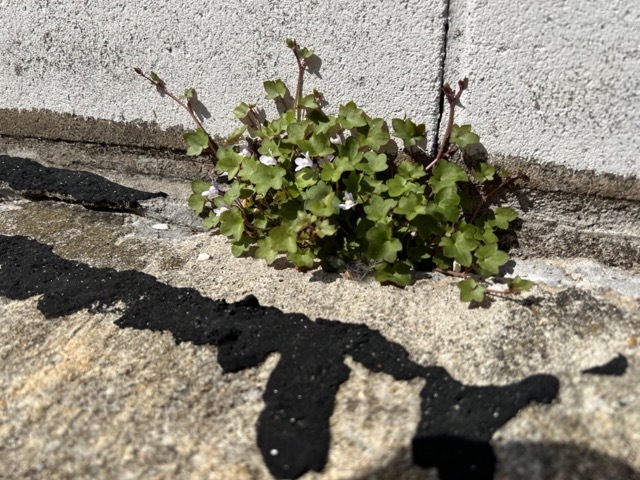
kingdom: Plantae
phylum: Tracheophyta
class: Magnoliopsida
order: Lamiales
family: Plantaginaceae
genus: Cymbalaria
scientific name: Cymbalaria muralis
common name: Ivy-leaved toadflax
